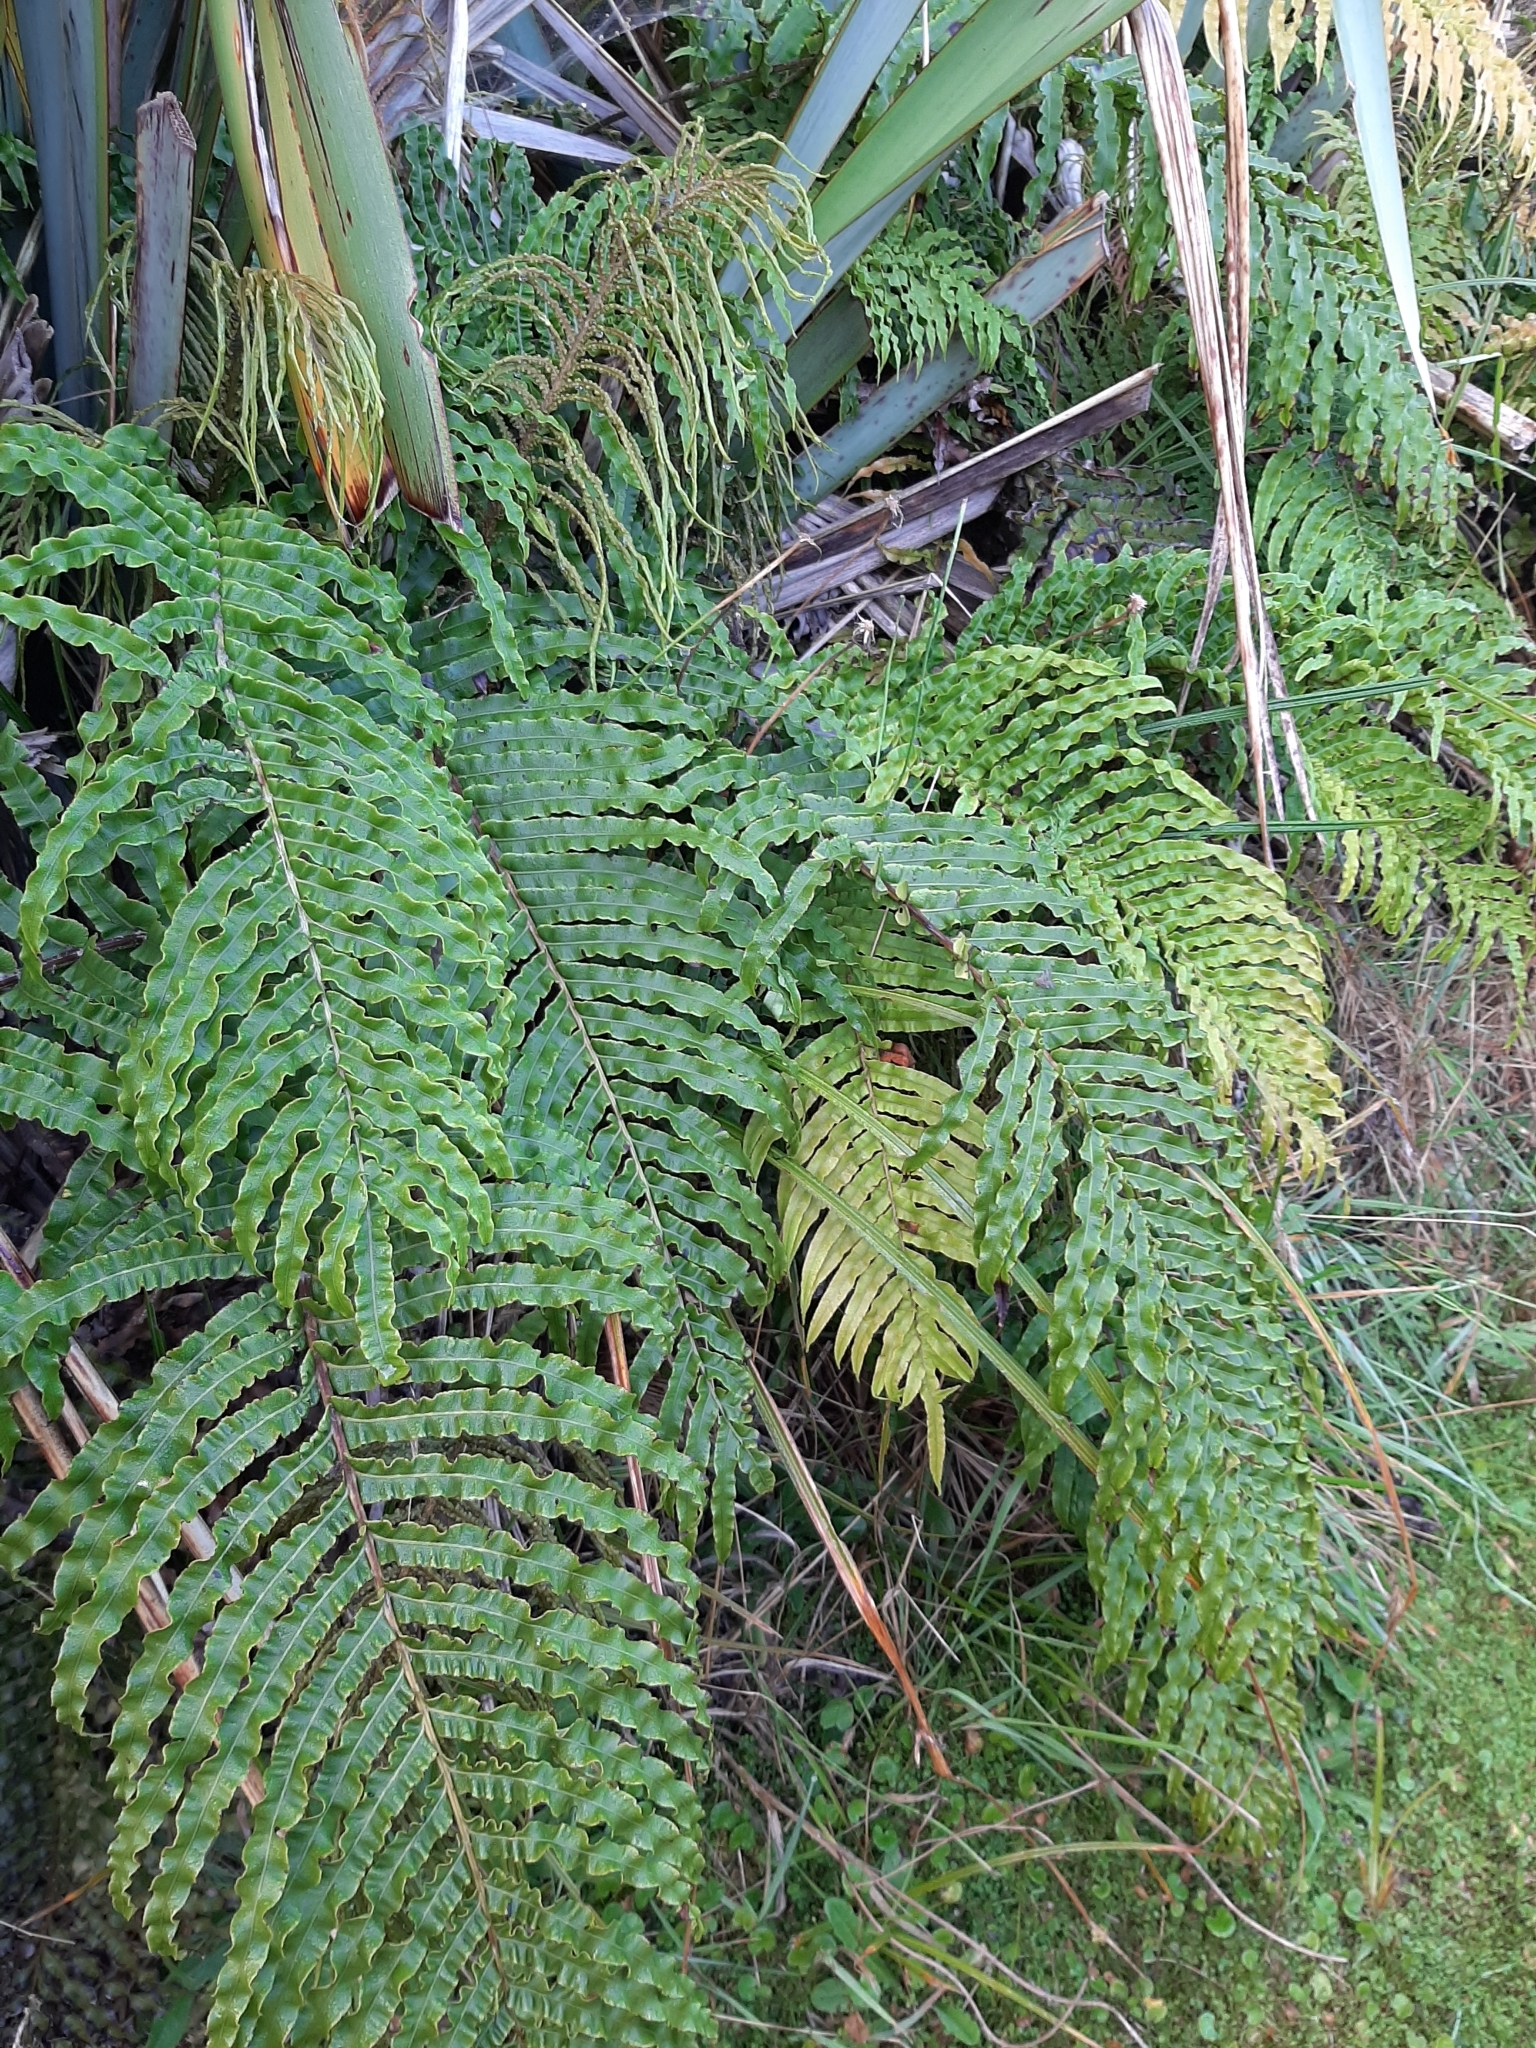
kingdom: Plantae
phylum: Tracheophyta
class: Polypodiopsida
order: Polypodiales
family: Blechnaceae
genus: Parablechnum
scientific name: Parablechnum novae-zelandiae
